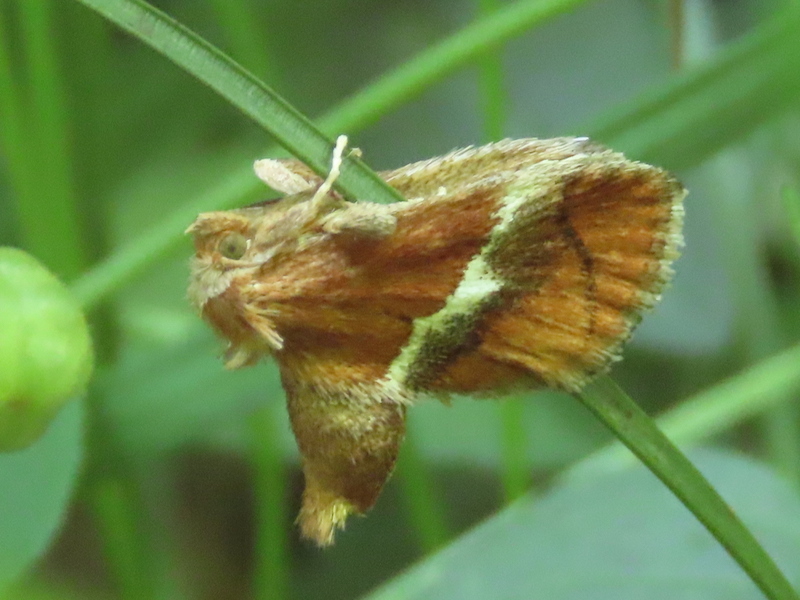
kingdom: Animalia
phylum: Arthropoda
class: Insecta
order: Lepidoptera
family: Limacodidae
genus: Lithacodes
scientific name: Lithacodes fasciola
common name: Yellow-shouldered slug moth
